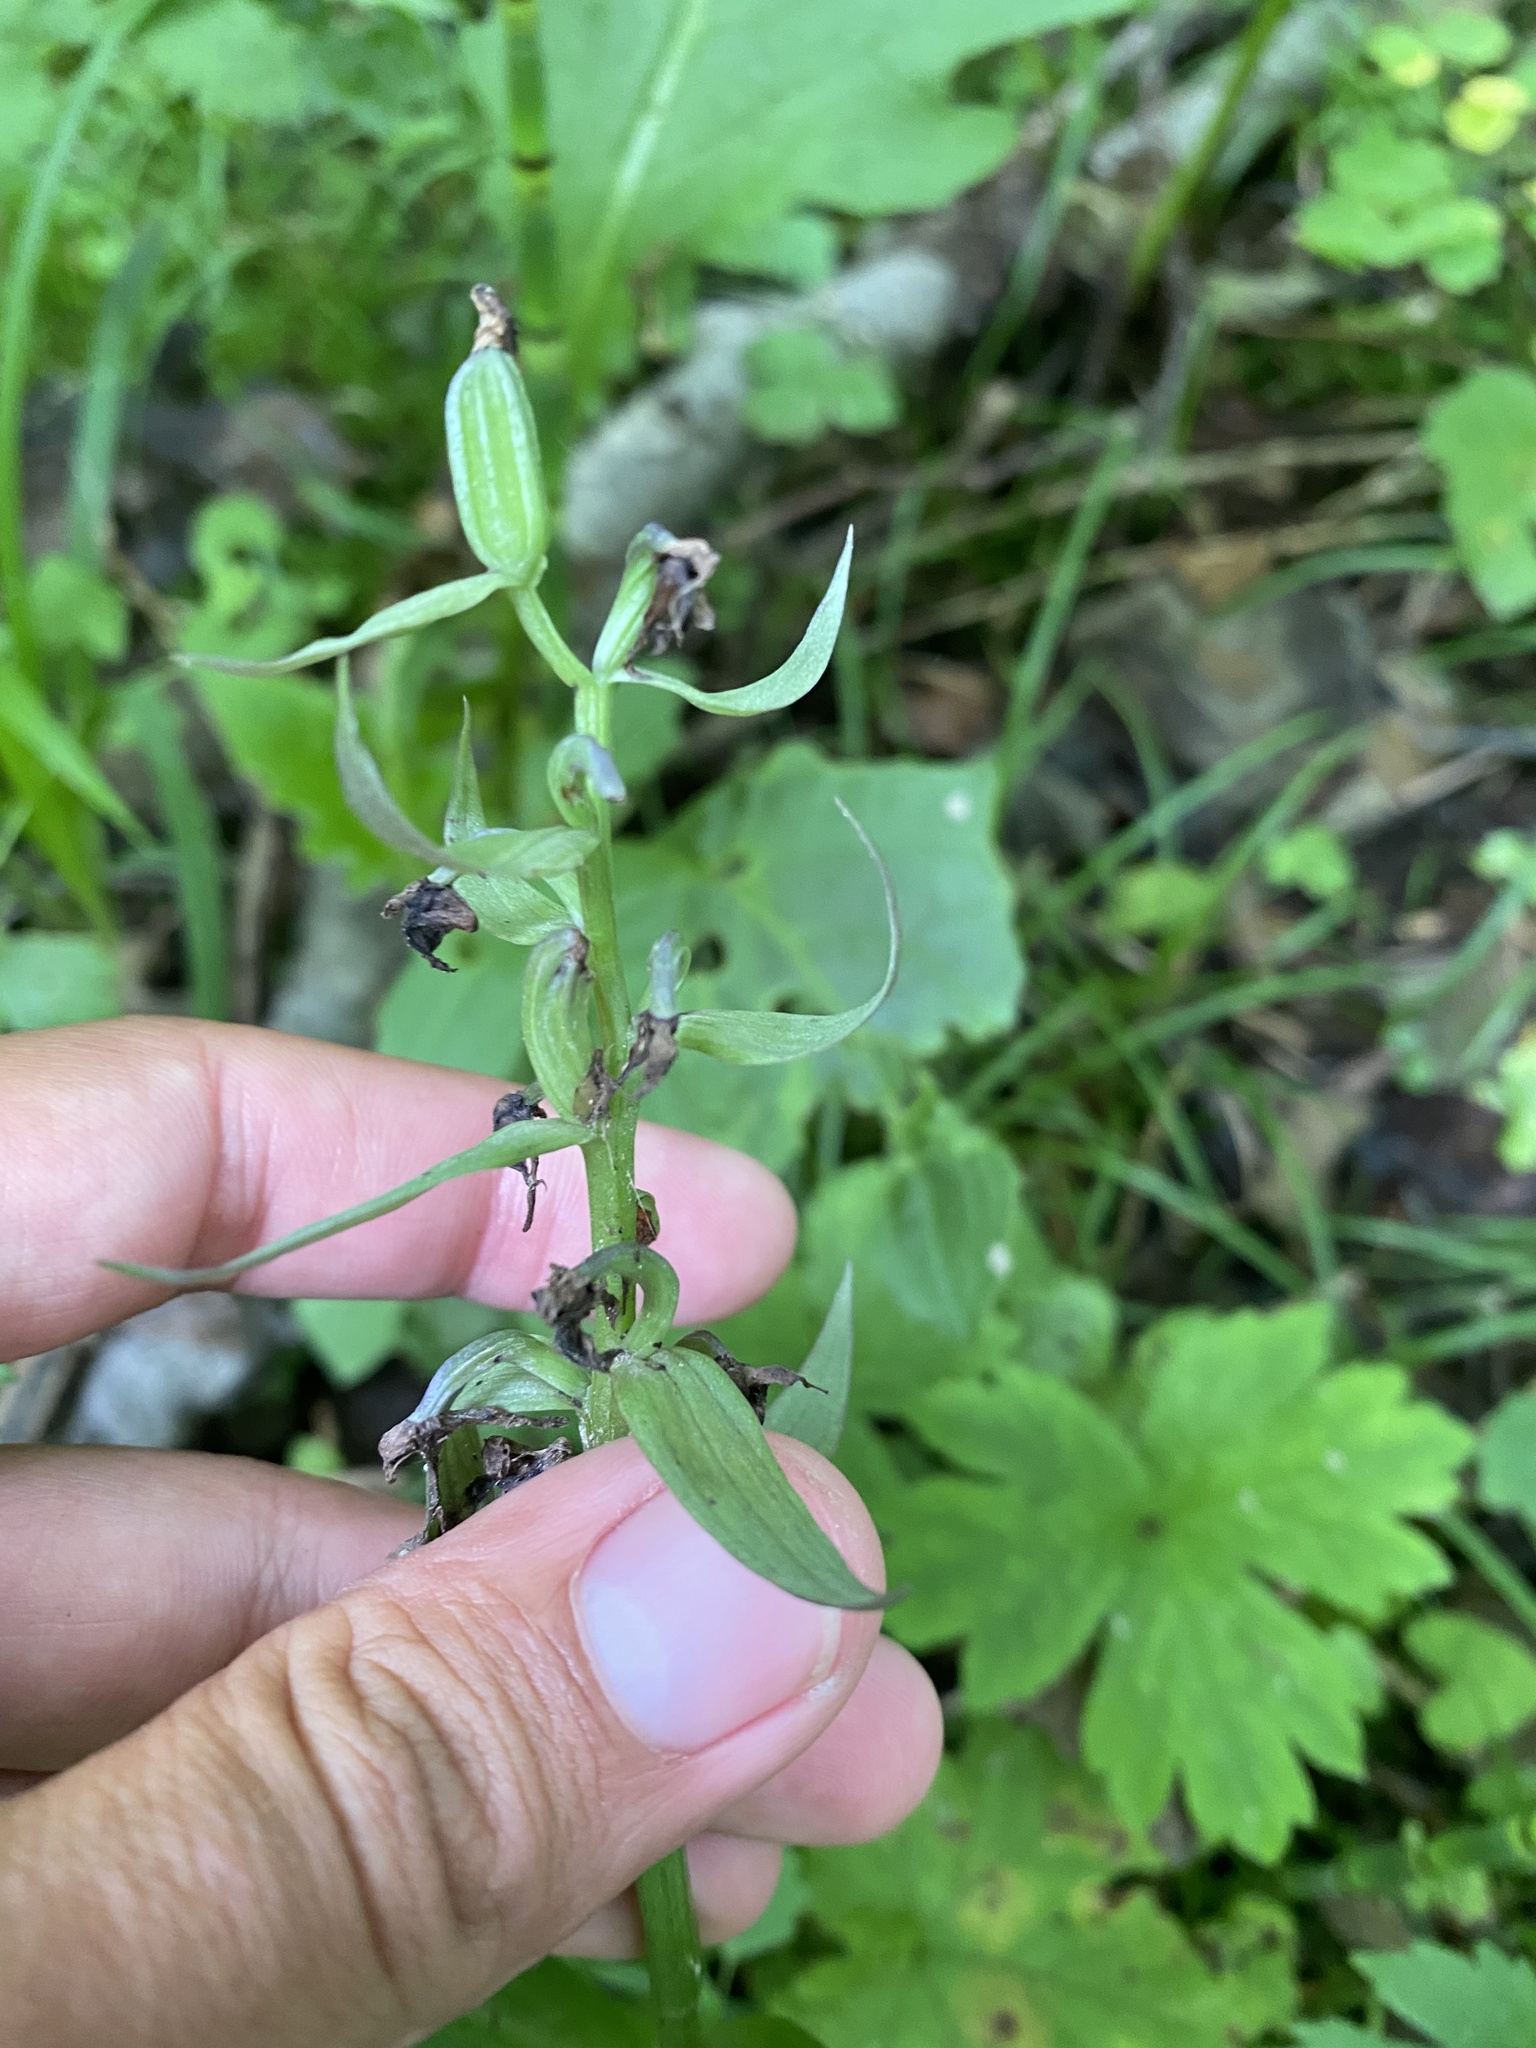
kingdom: Plantae
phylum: Tracheophyta
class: Liliopsida
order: Asparagales
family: Orchidaceae
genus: Dactylorhiza
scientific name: Dactylorhiza aristata
